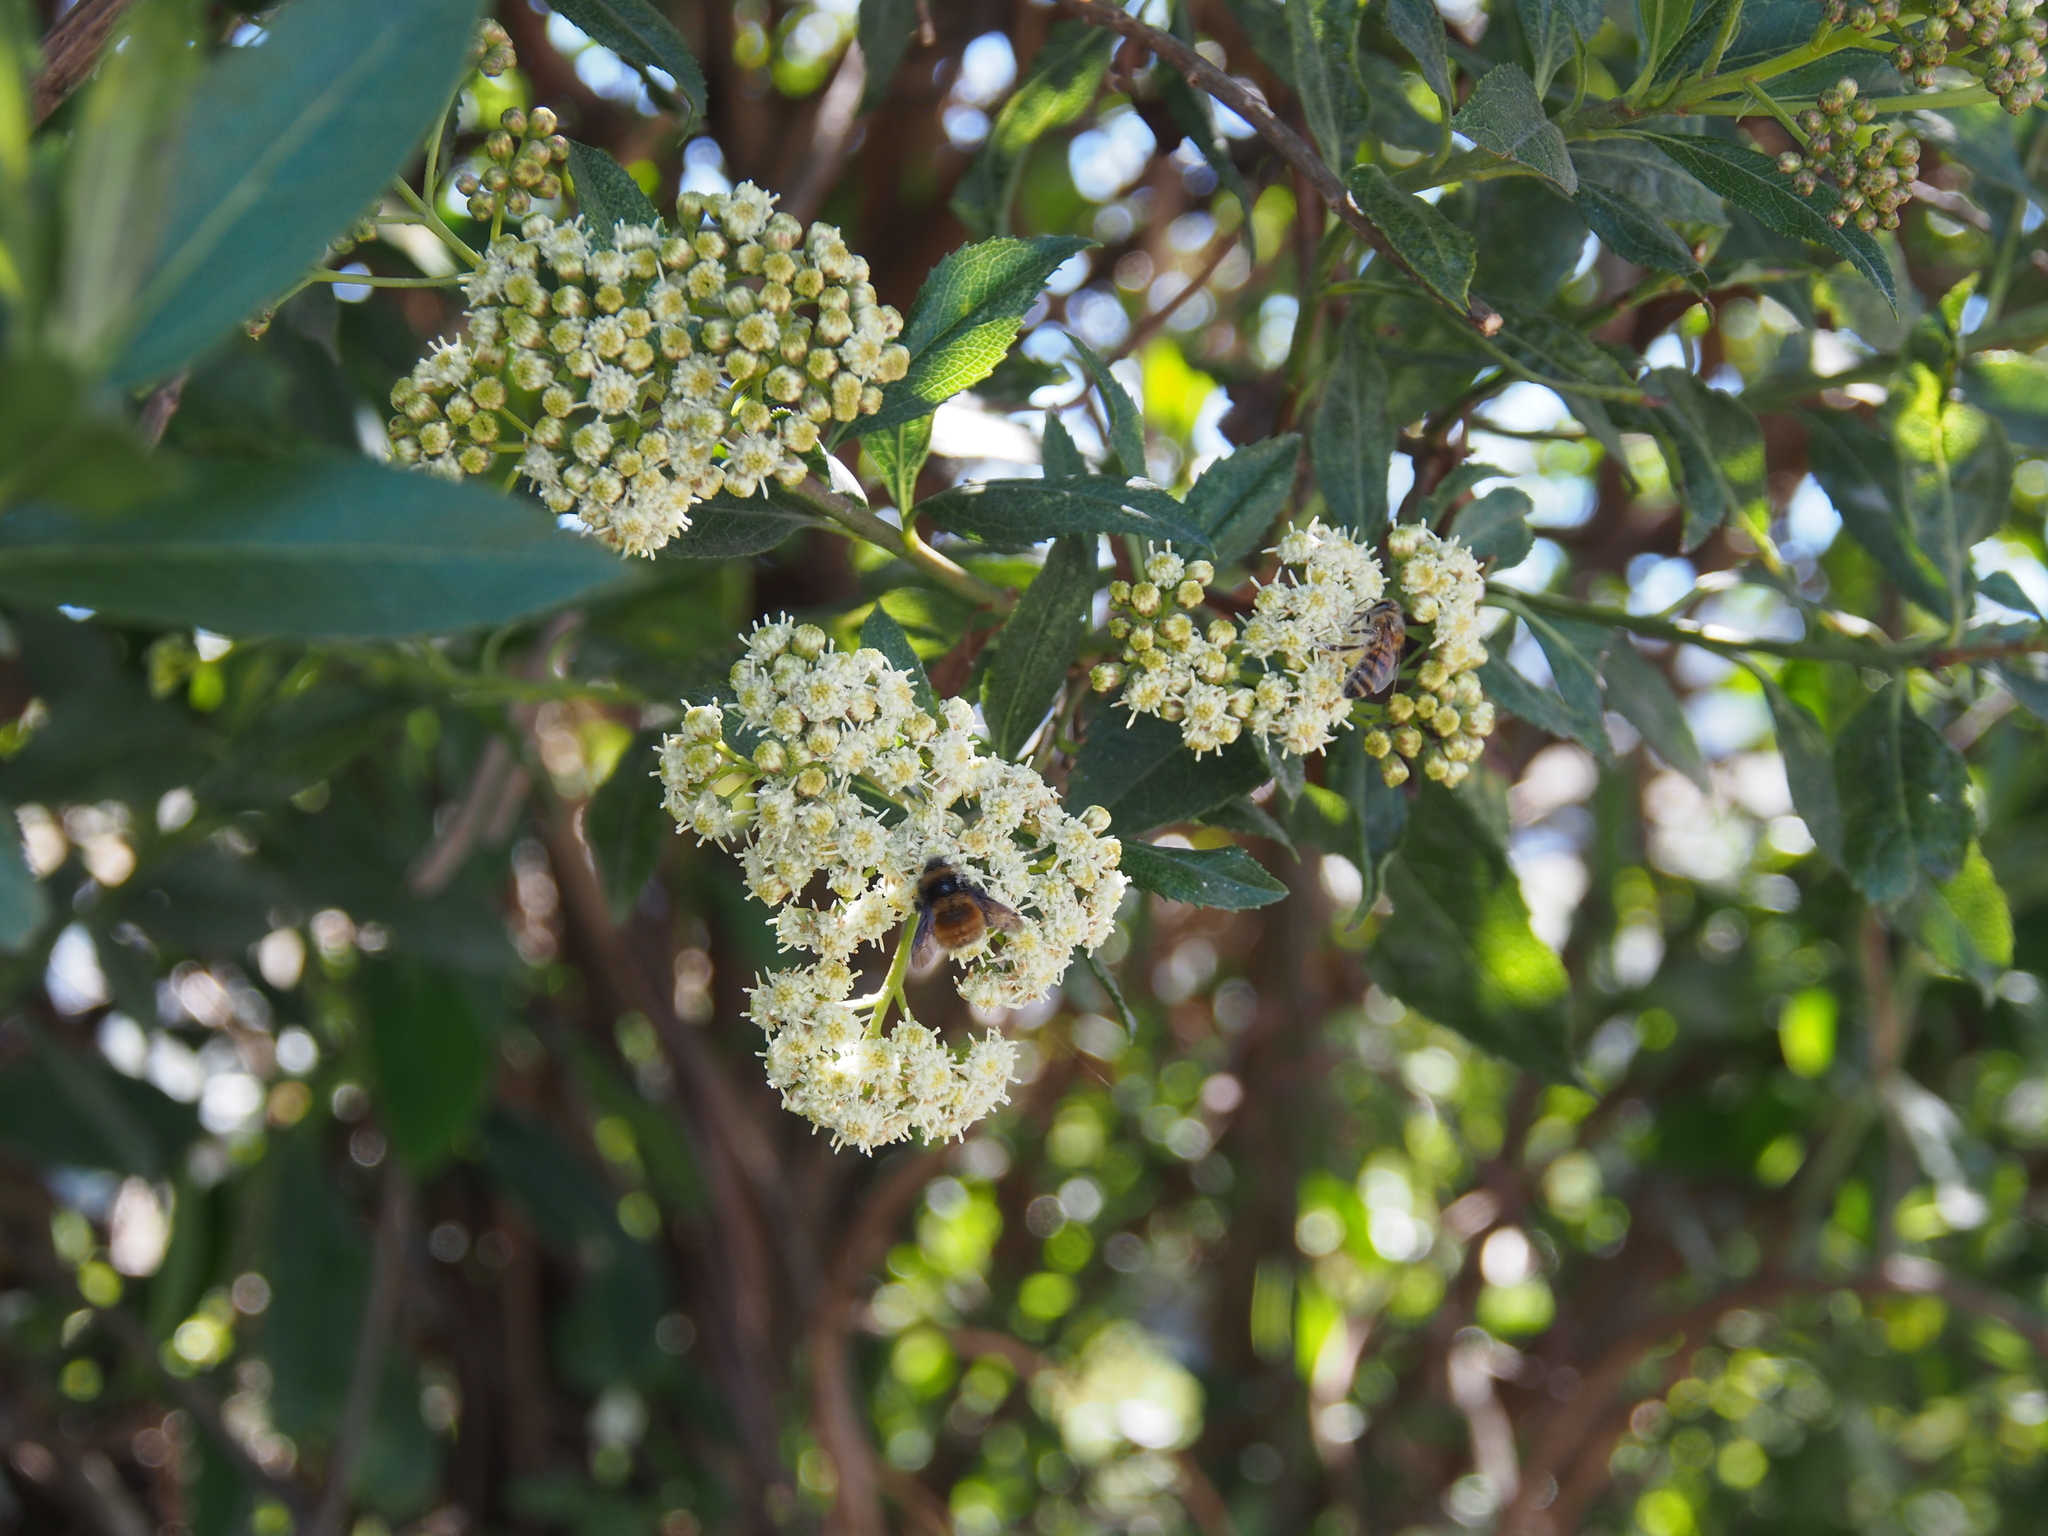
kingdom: Animalia
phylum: Arthropoda
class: Insecta
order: Hymenoptera
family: Apidae
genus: Apis
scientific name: Apis mellifera
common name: Honey bee
